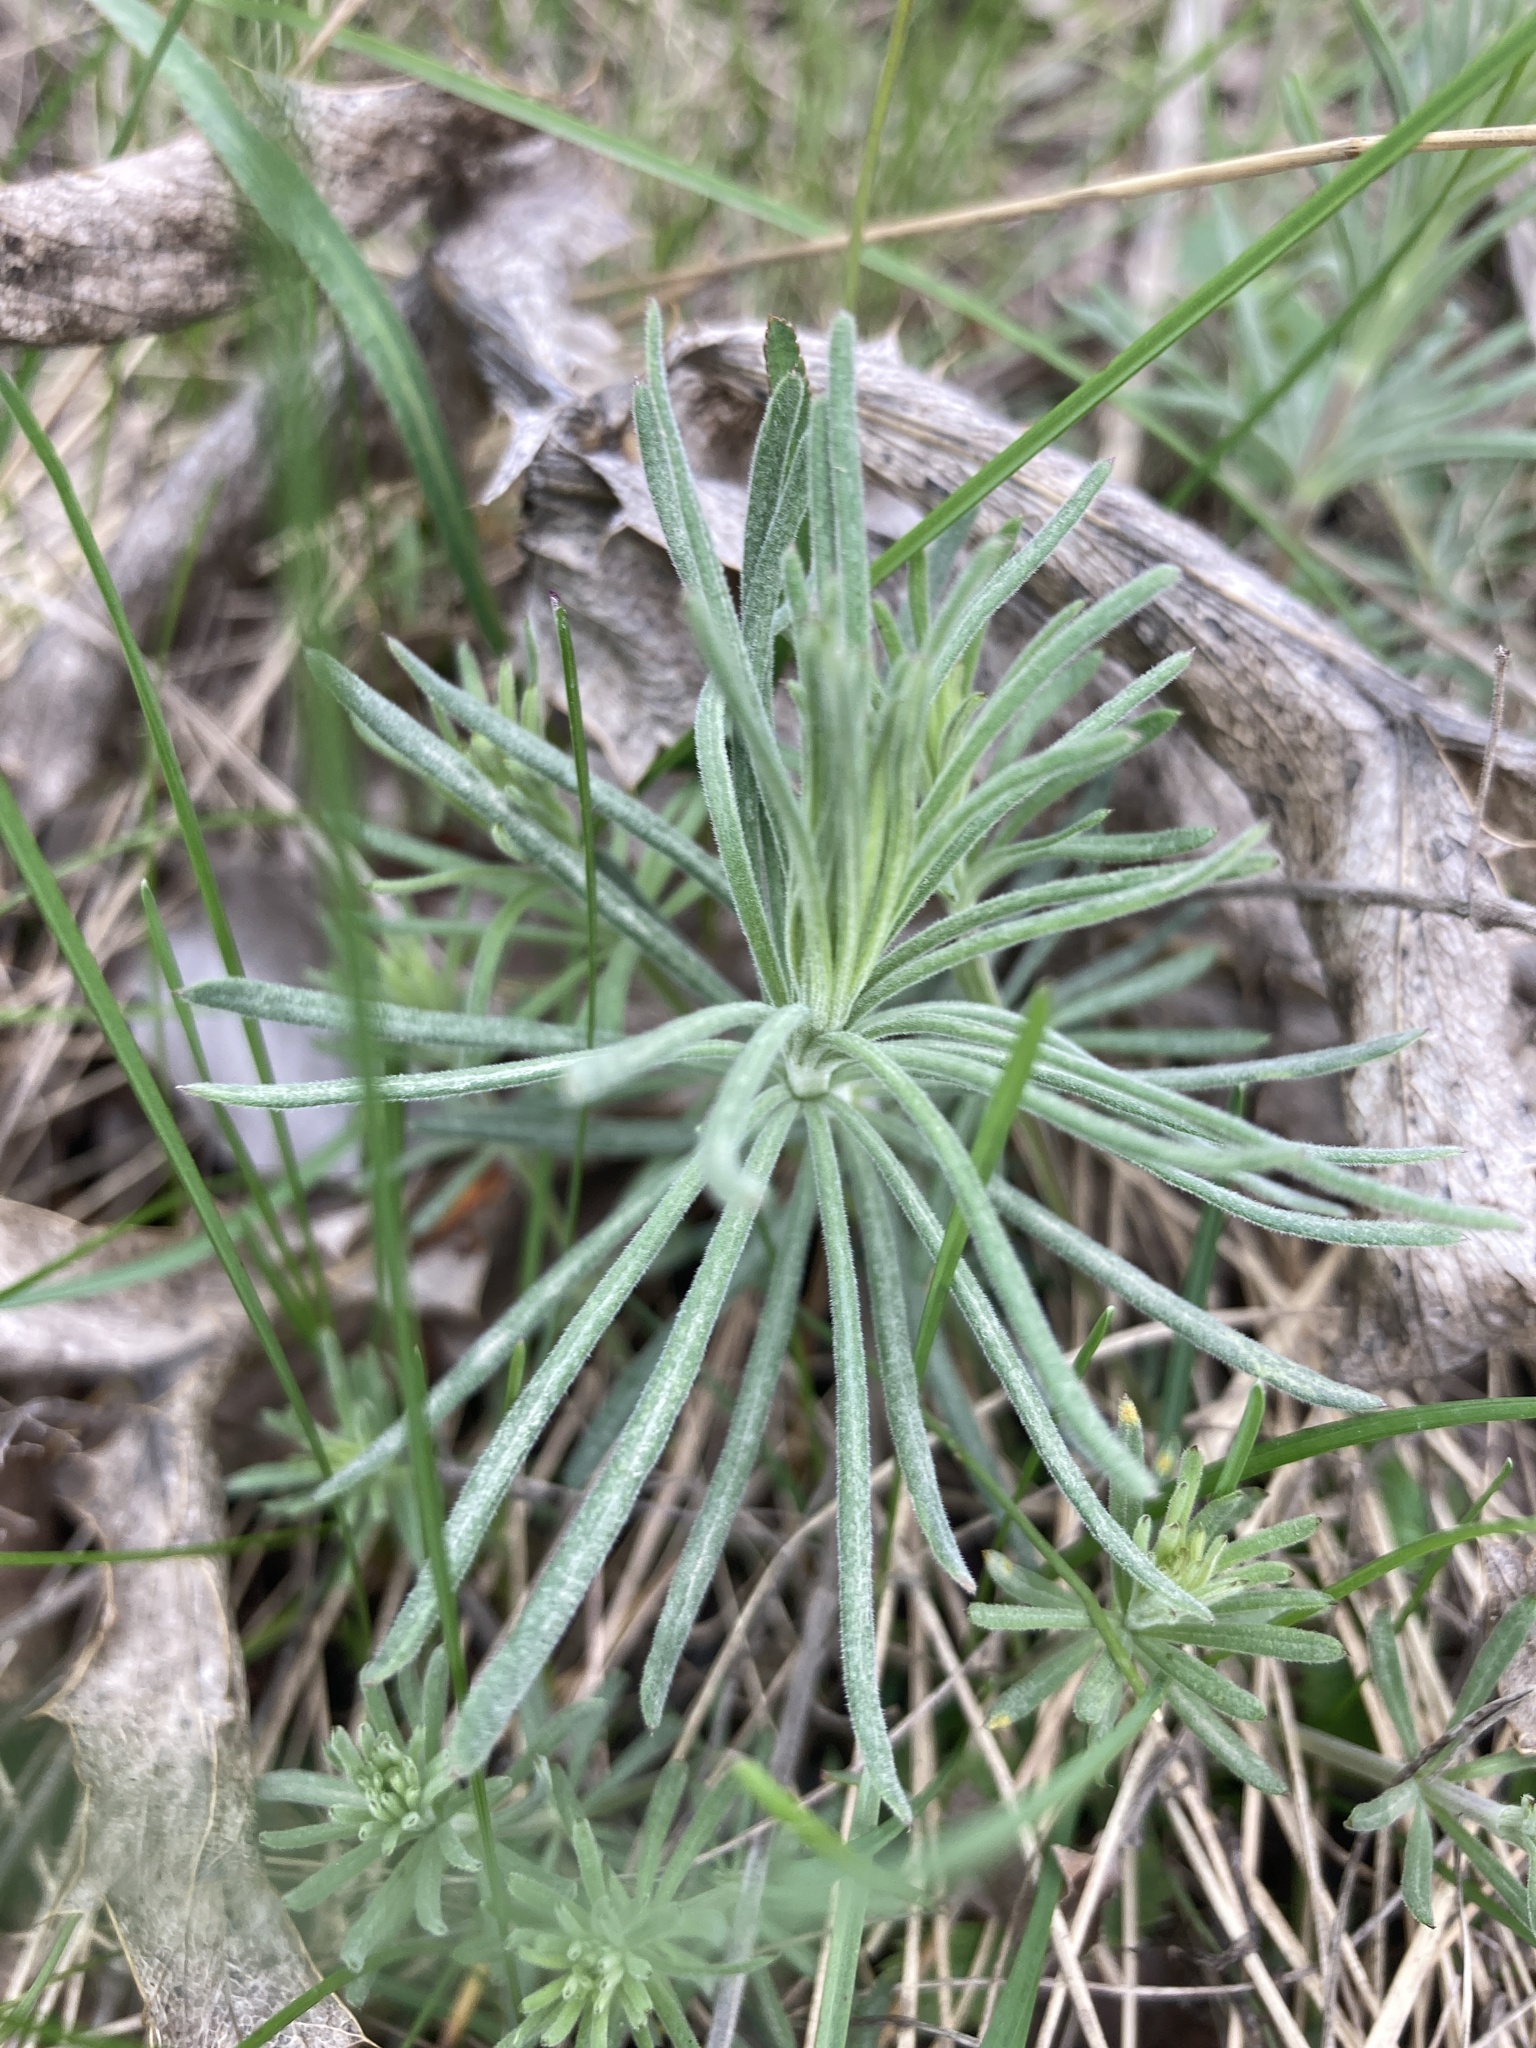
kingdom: Plantae
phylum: Tracheophyta
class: Magnoliopsida
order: Gentianales
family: Rubiaceae
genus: Galium
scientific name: Galium verum
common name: Lady's bedstraw
